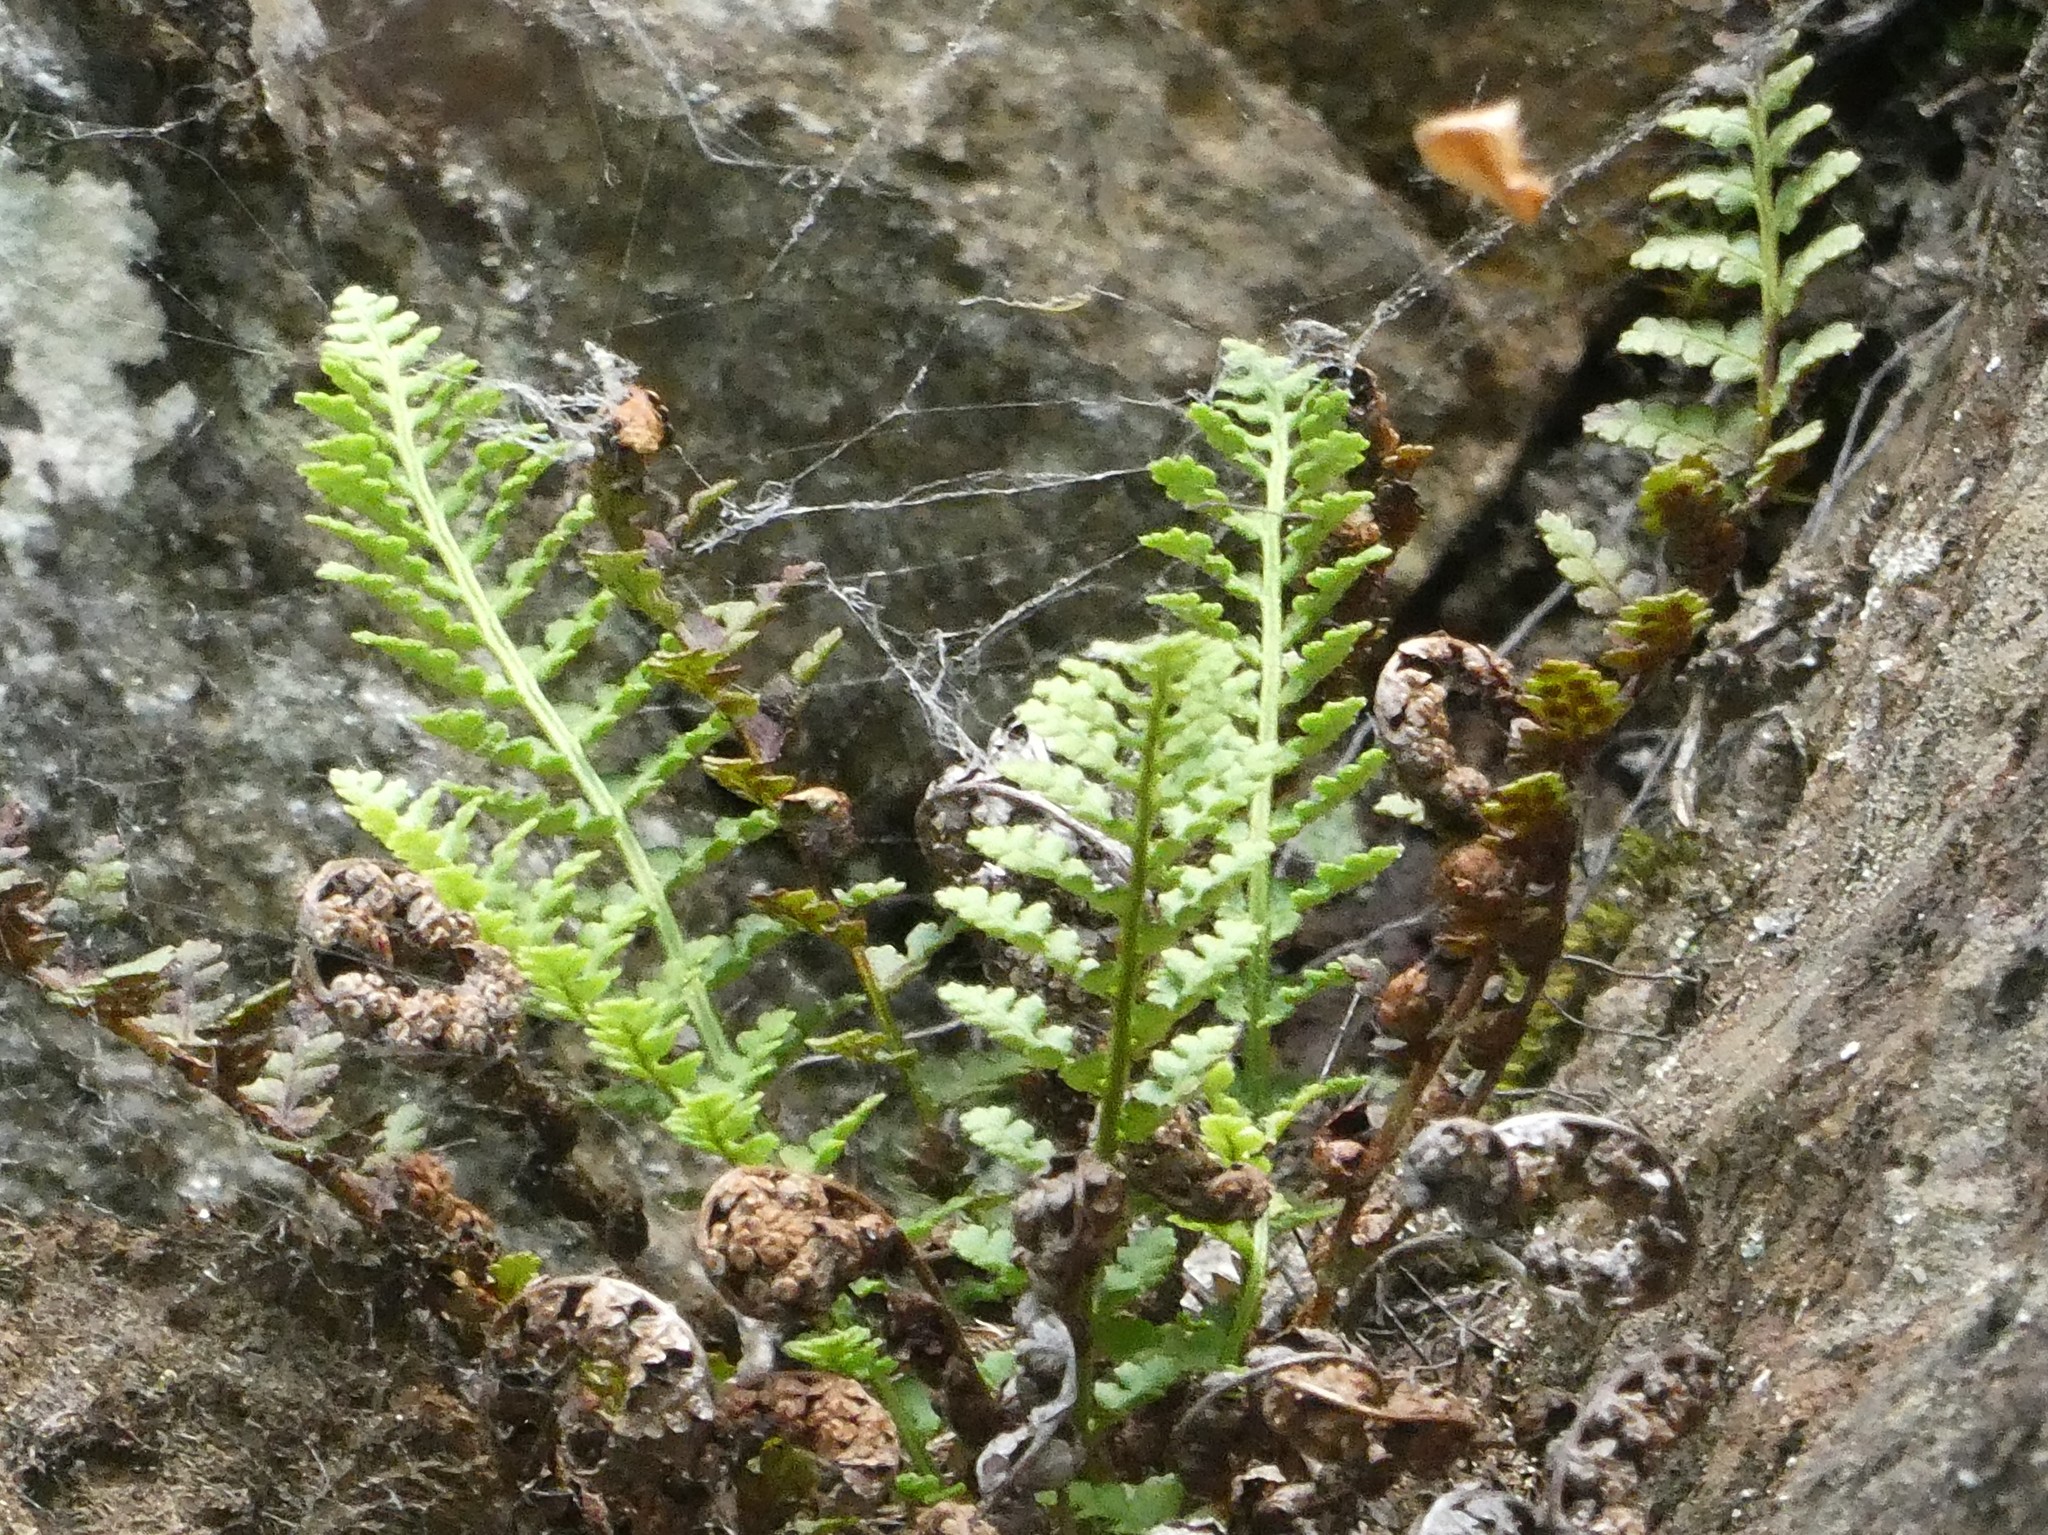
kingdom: Plantae
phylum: Tracheophyta
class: Polypodiopsida
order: Polypodiales
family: Dryopteridaceae
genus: Dryopteris
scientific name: Dryopteris fragrans
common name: Fragrant wood fern
